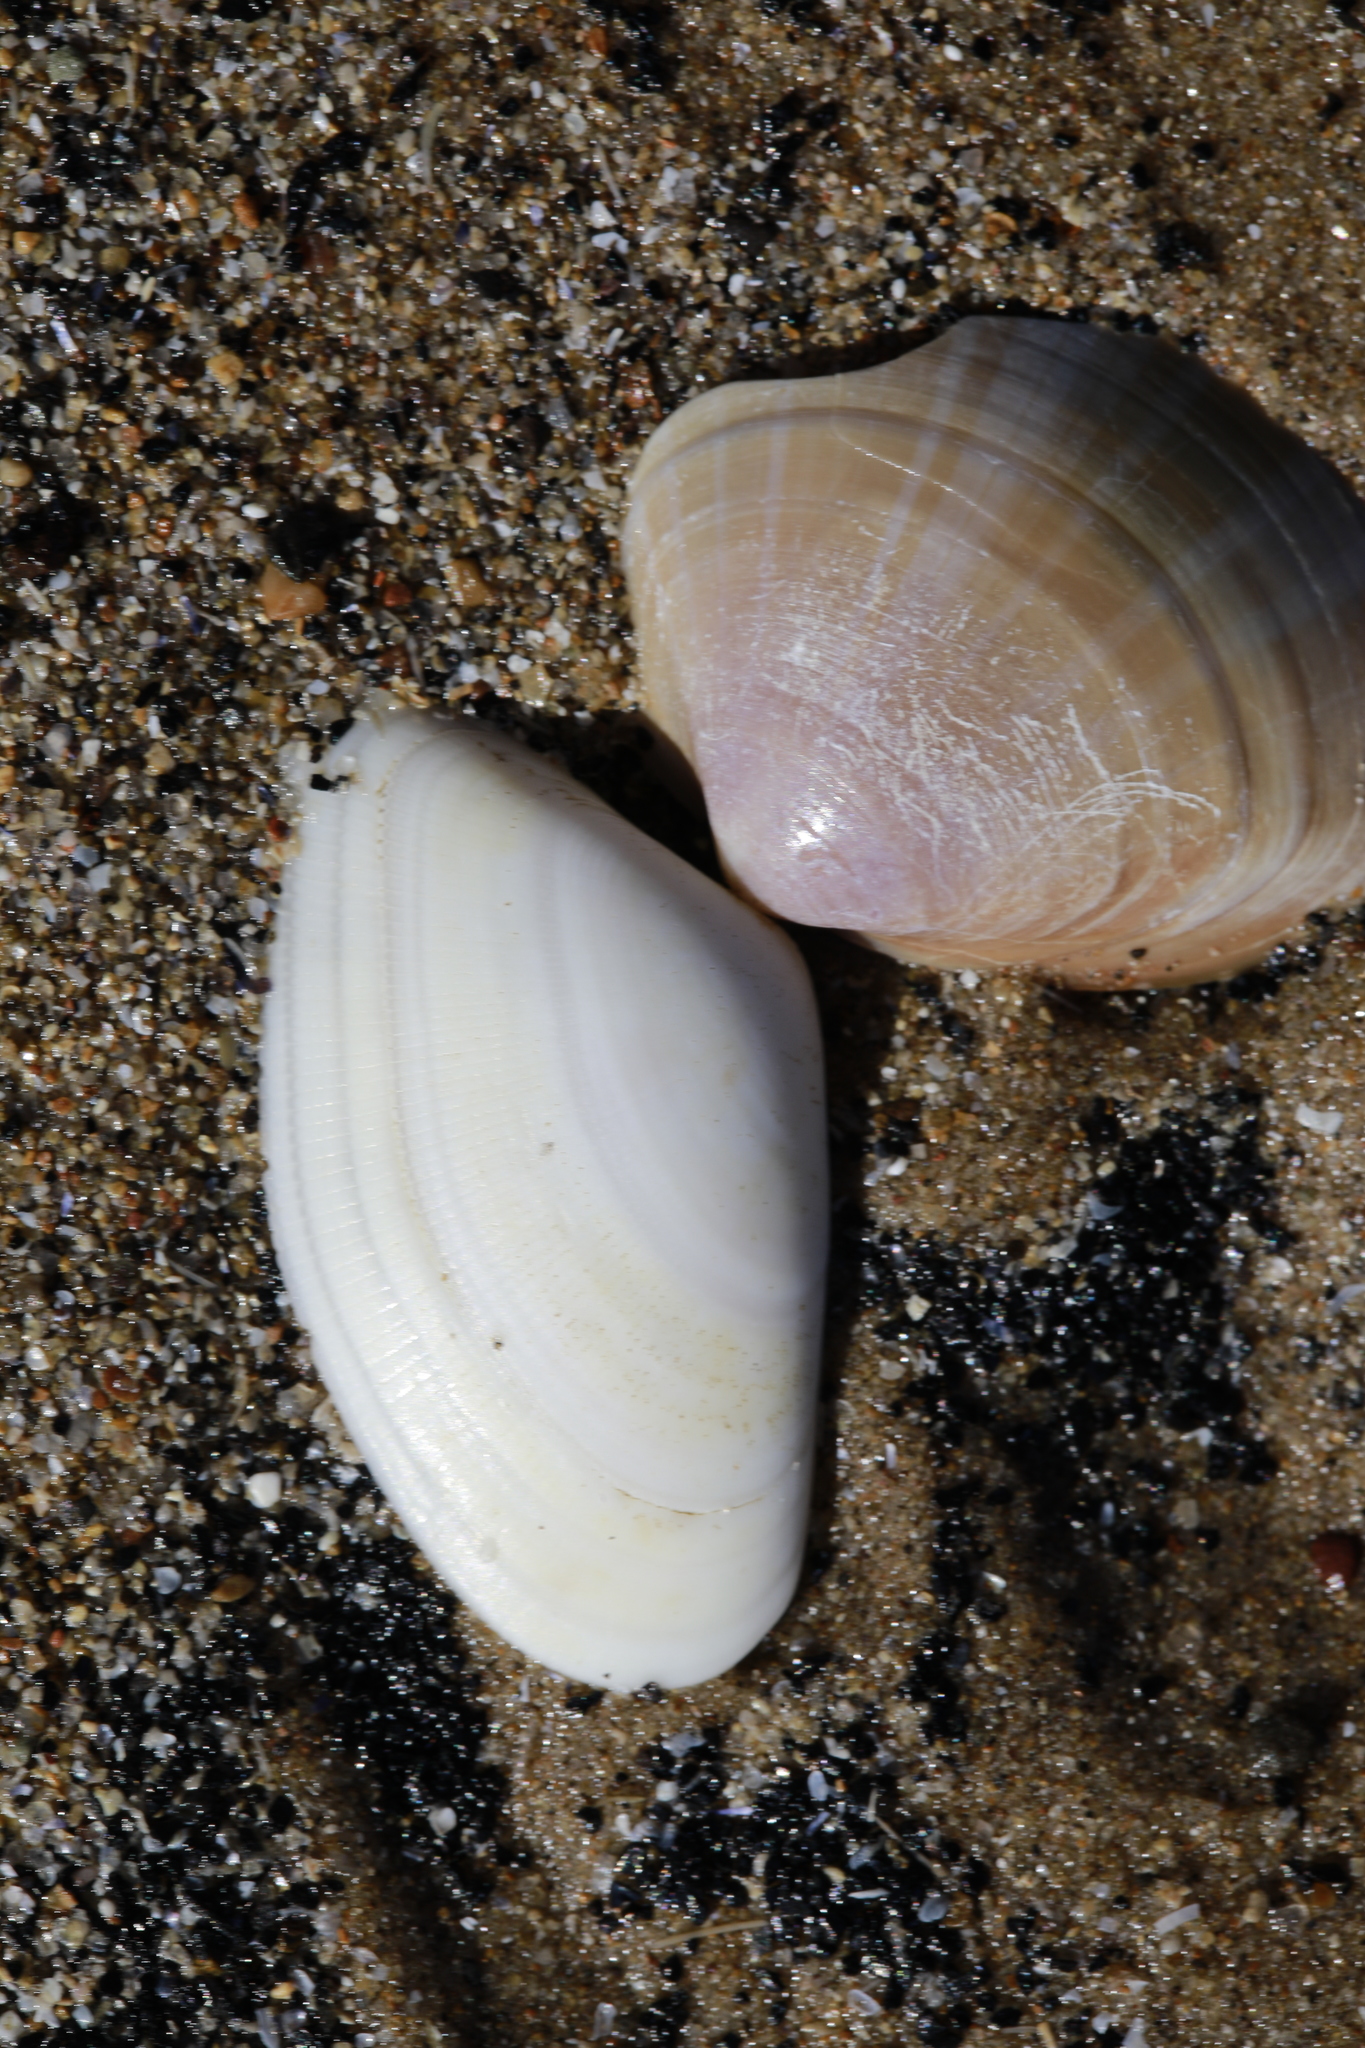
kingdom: Animalia
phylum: Mollusca
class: Bivalvia
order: Venerida
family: Mactridae
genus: Mactra
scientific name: Mactra stultorum
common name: Rayed trough shell
